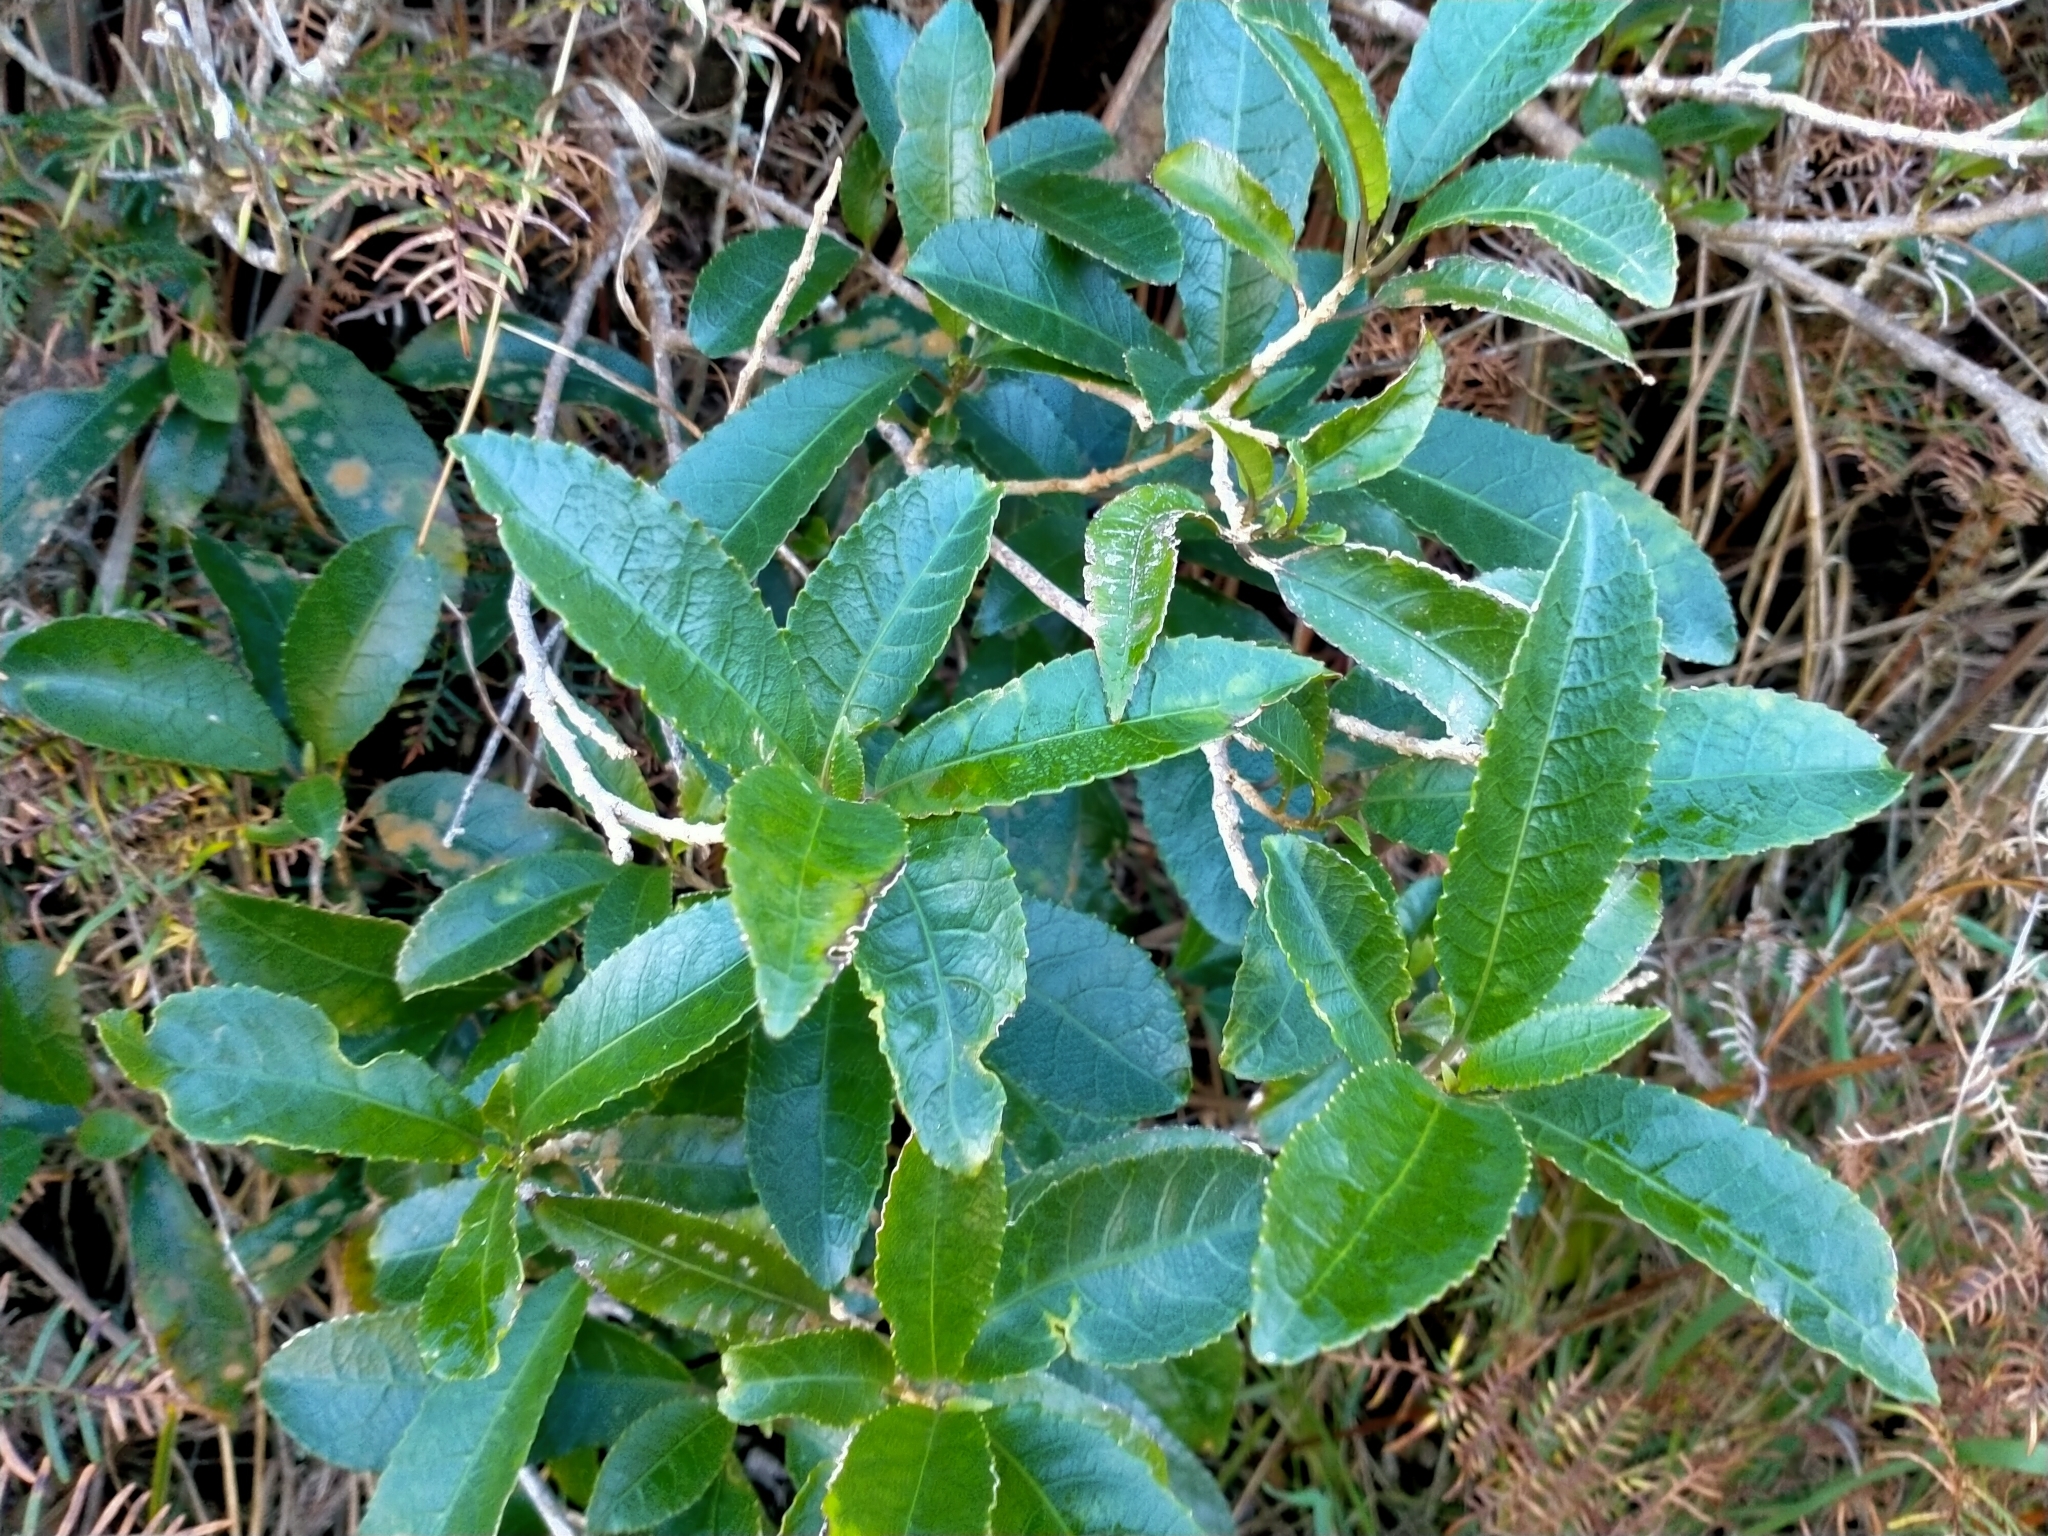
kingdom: Plantae
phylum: Tracheophyta
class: Magnoliopsida
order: Malpighiales
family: Violaceae
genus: Melicytus
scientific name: Melicytus ramiflorus
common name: Mahoe
